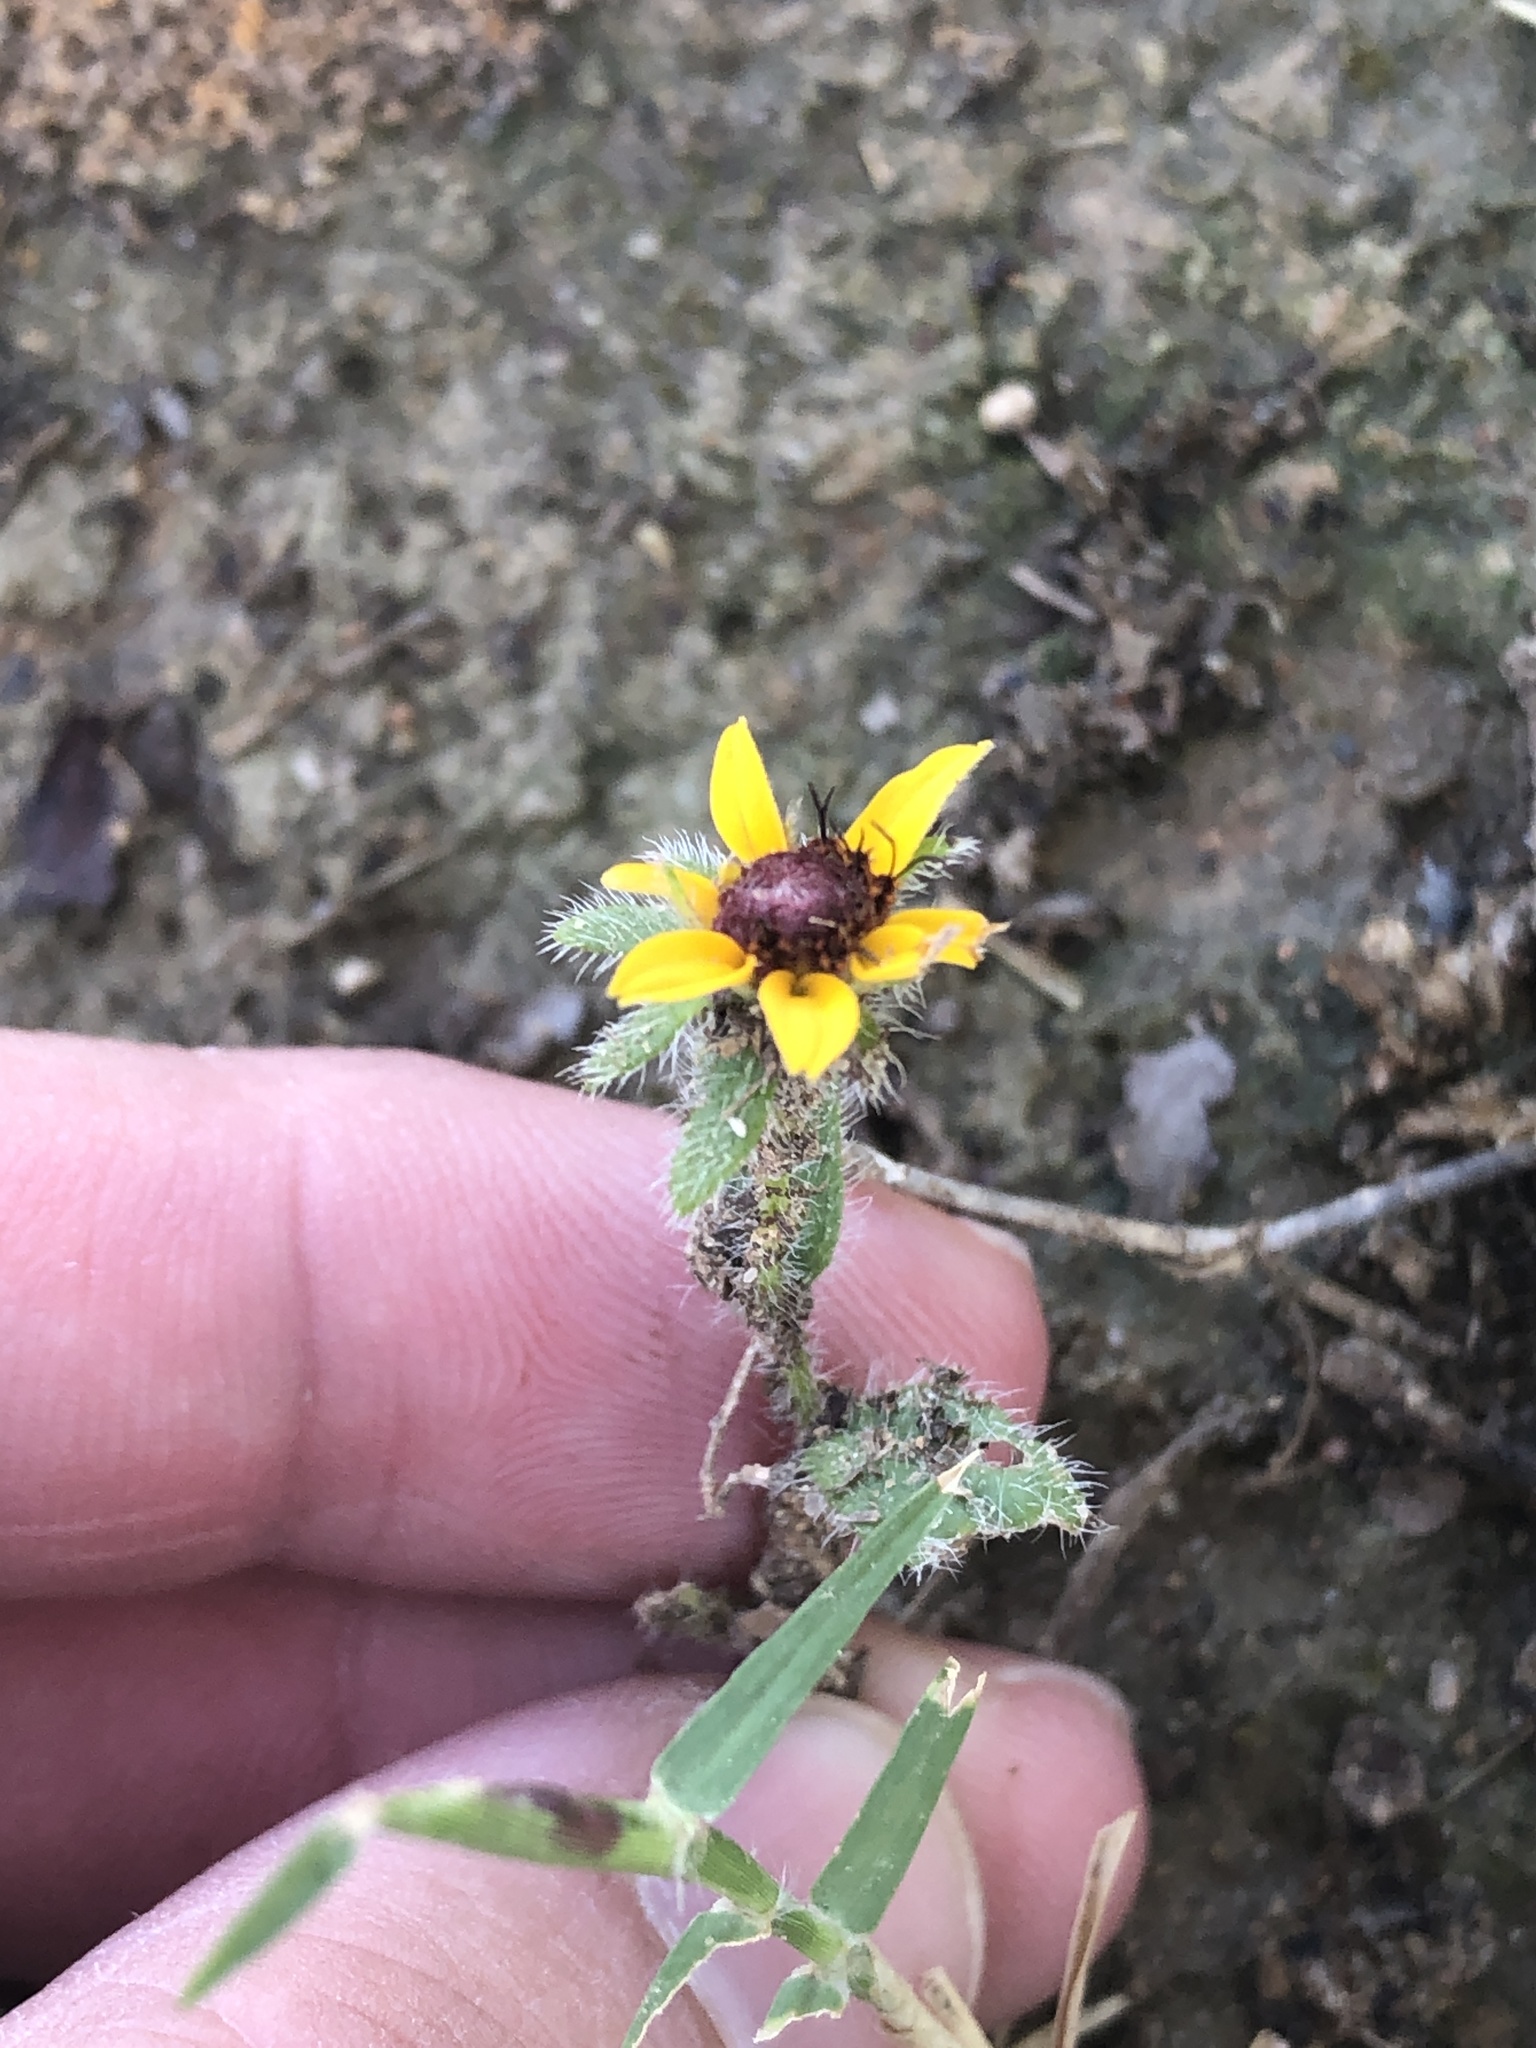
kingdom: Plantae
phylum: Tracheophyta
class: Magnoliopsida
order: Asterales
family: Asteraceae
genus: Rudbeckia
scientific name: Rudbeckia hirta
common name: Black-eyed-susan
